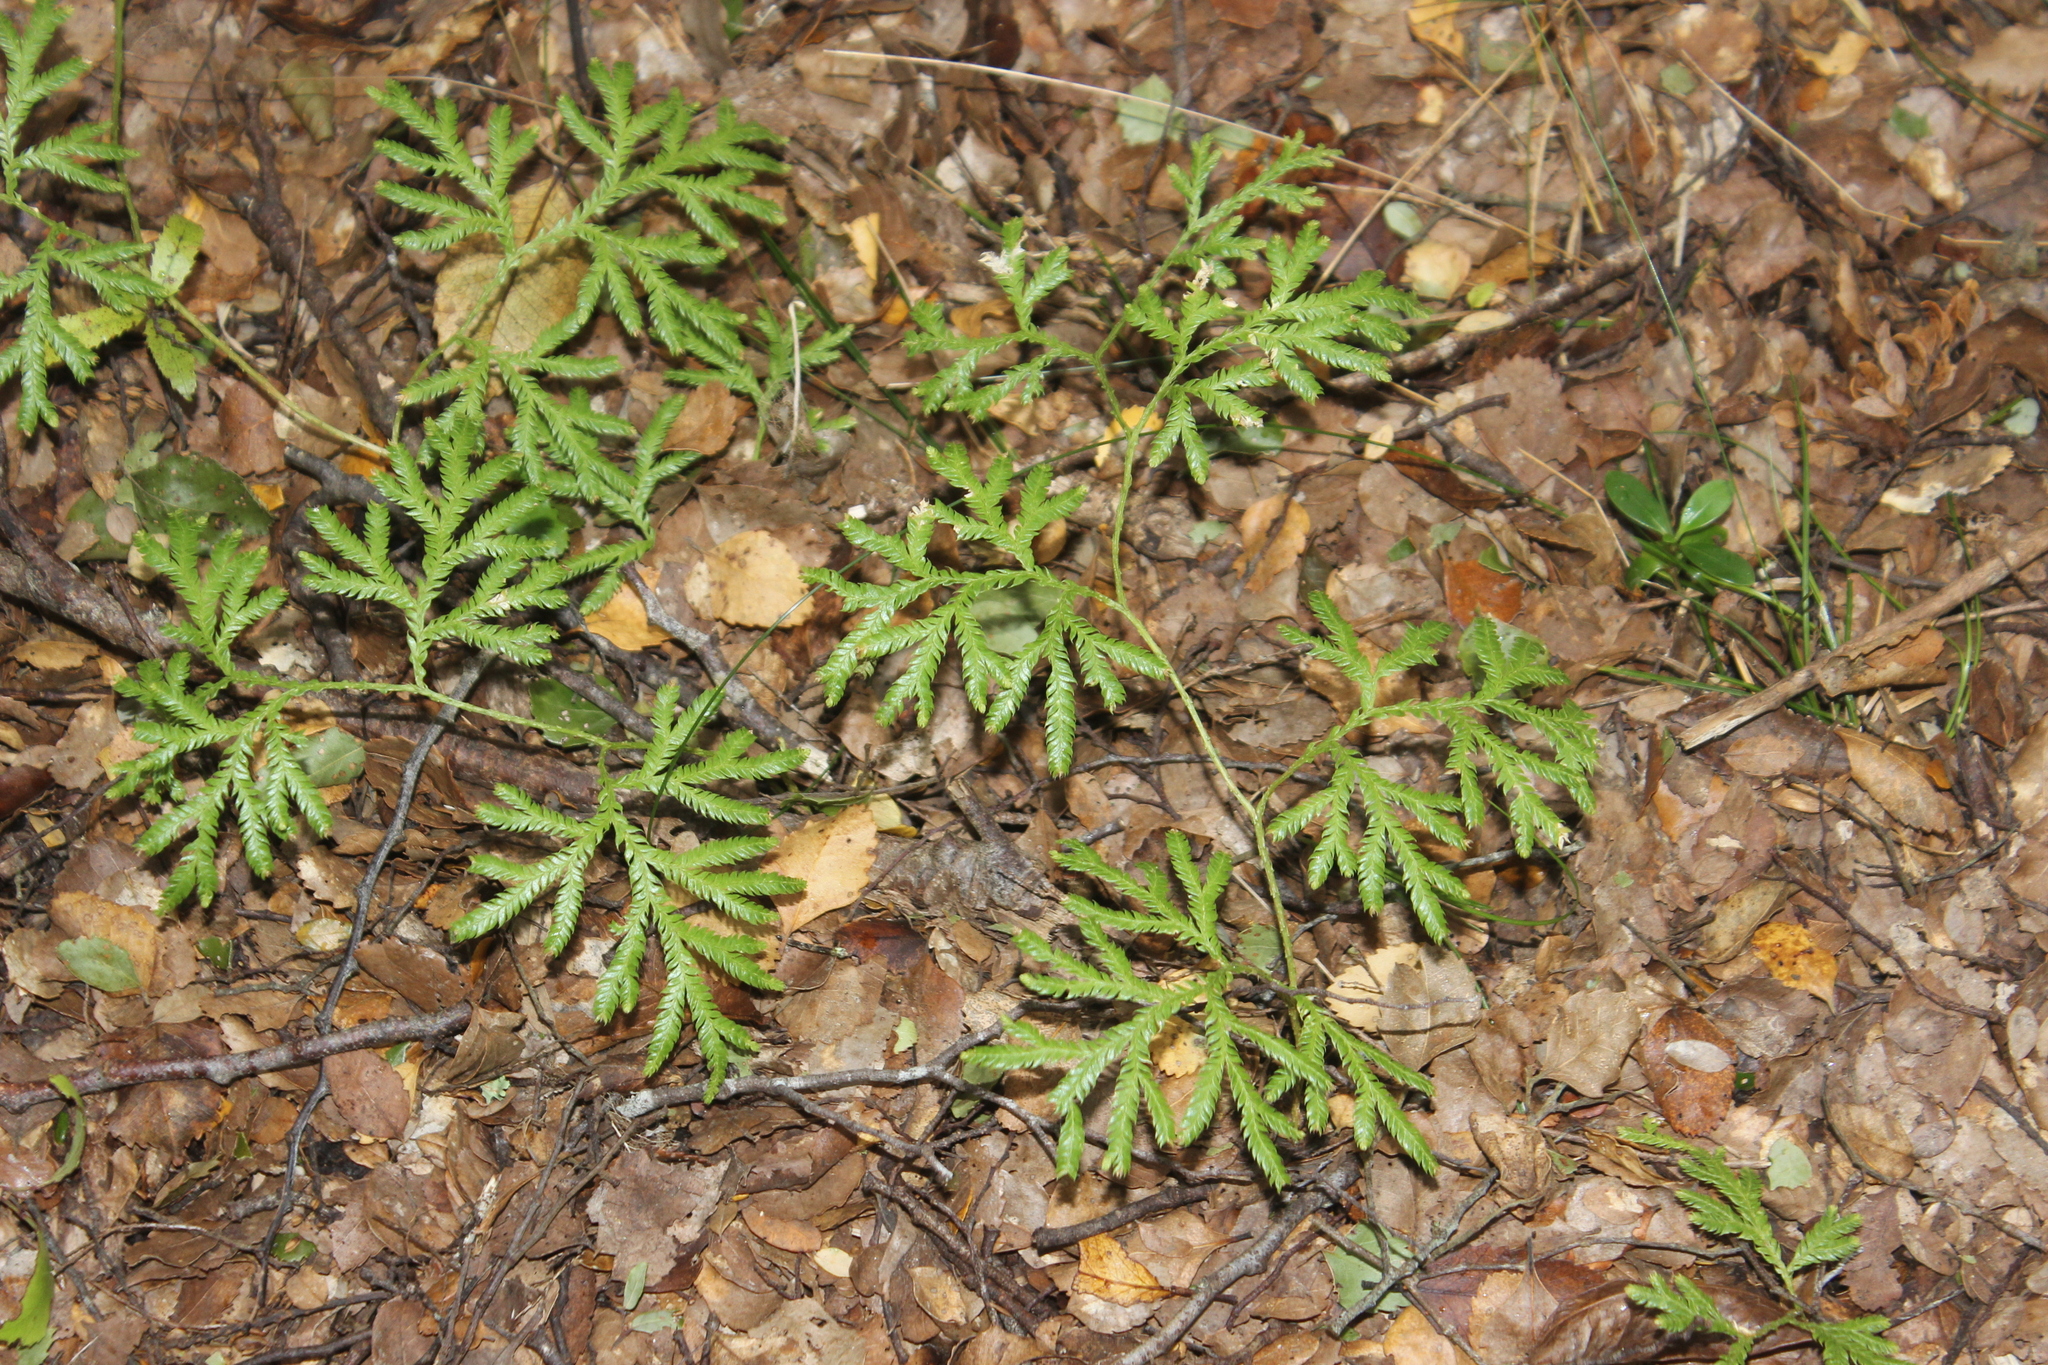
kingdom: Plantae
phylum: Tracheophyta
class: Lycopodiopsida
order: Lycopodiales
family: Lycopodiaceae
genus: Lycopodium
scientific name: Lycopodium volubile
